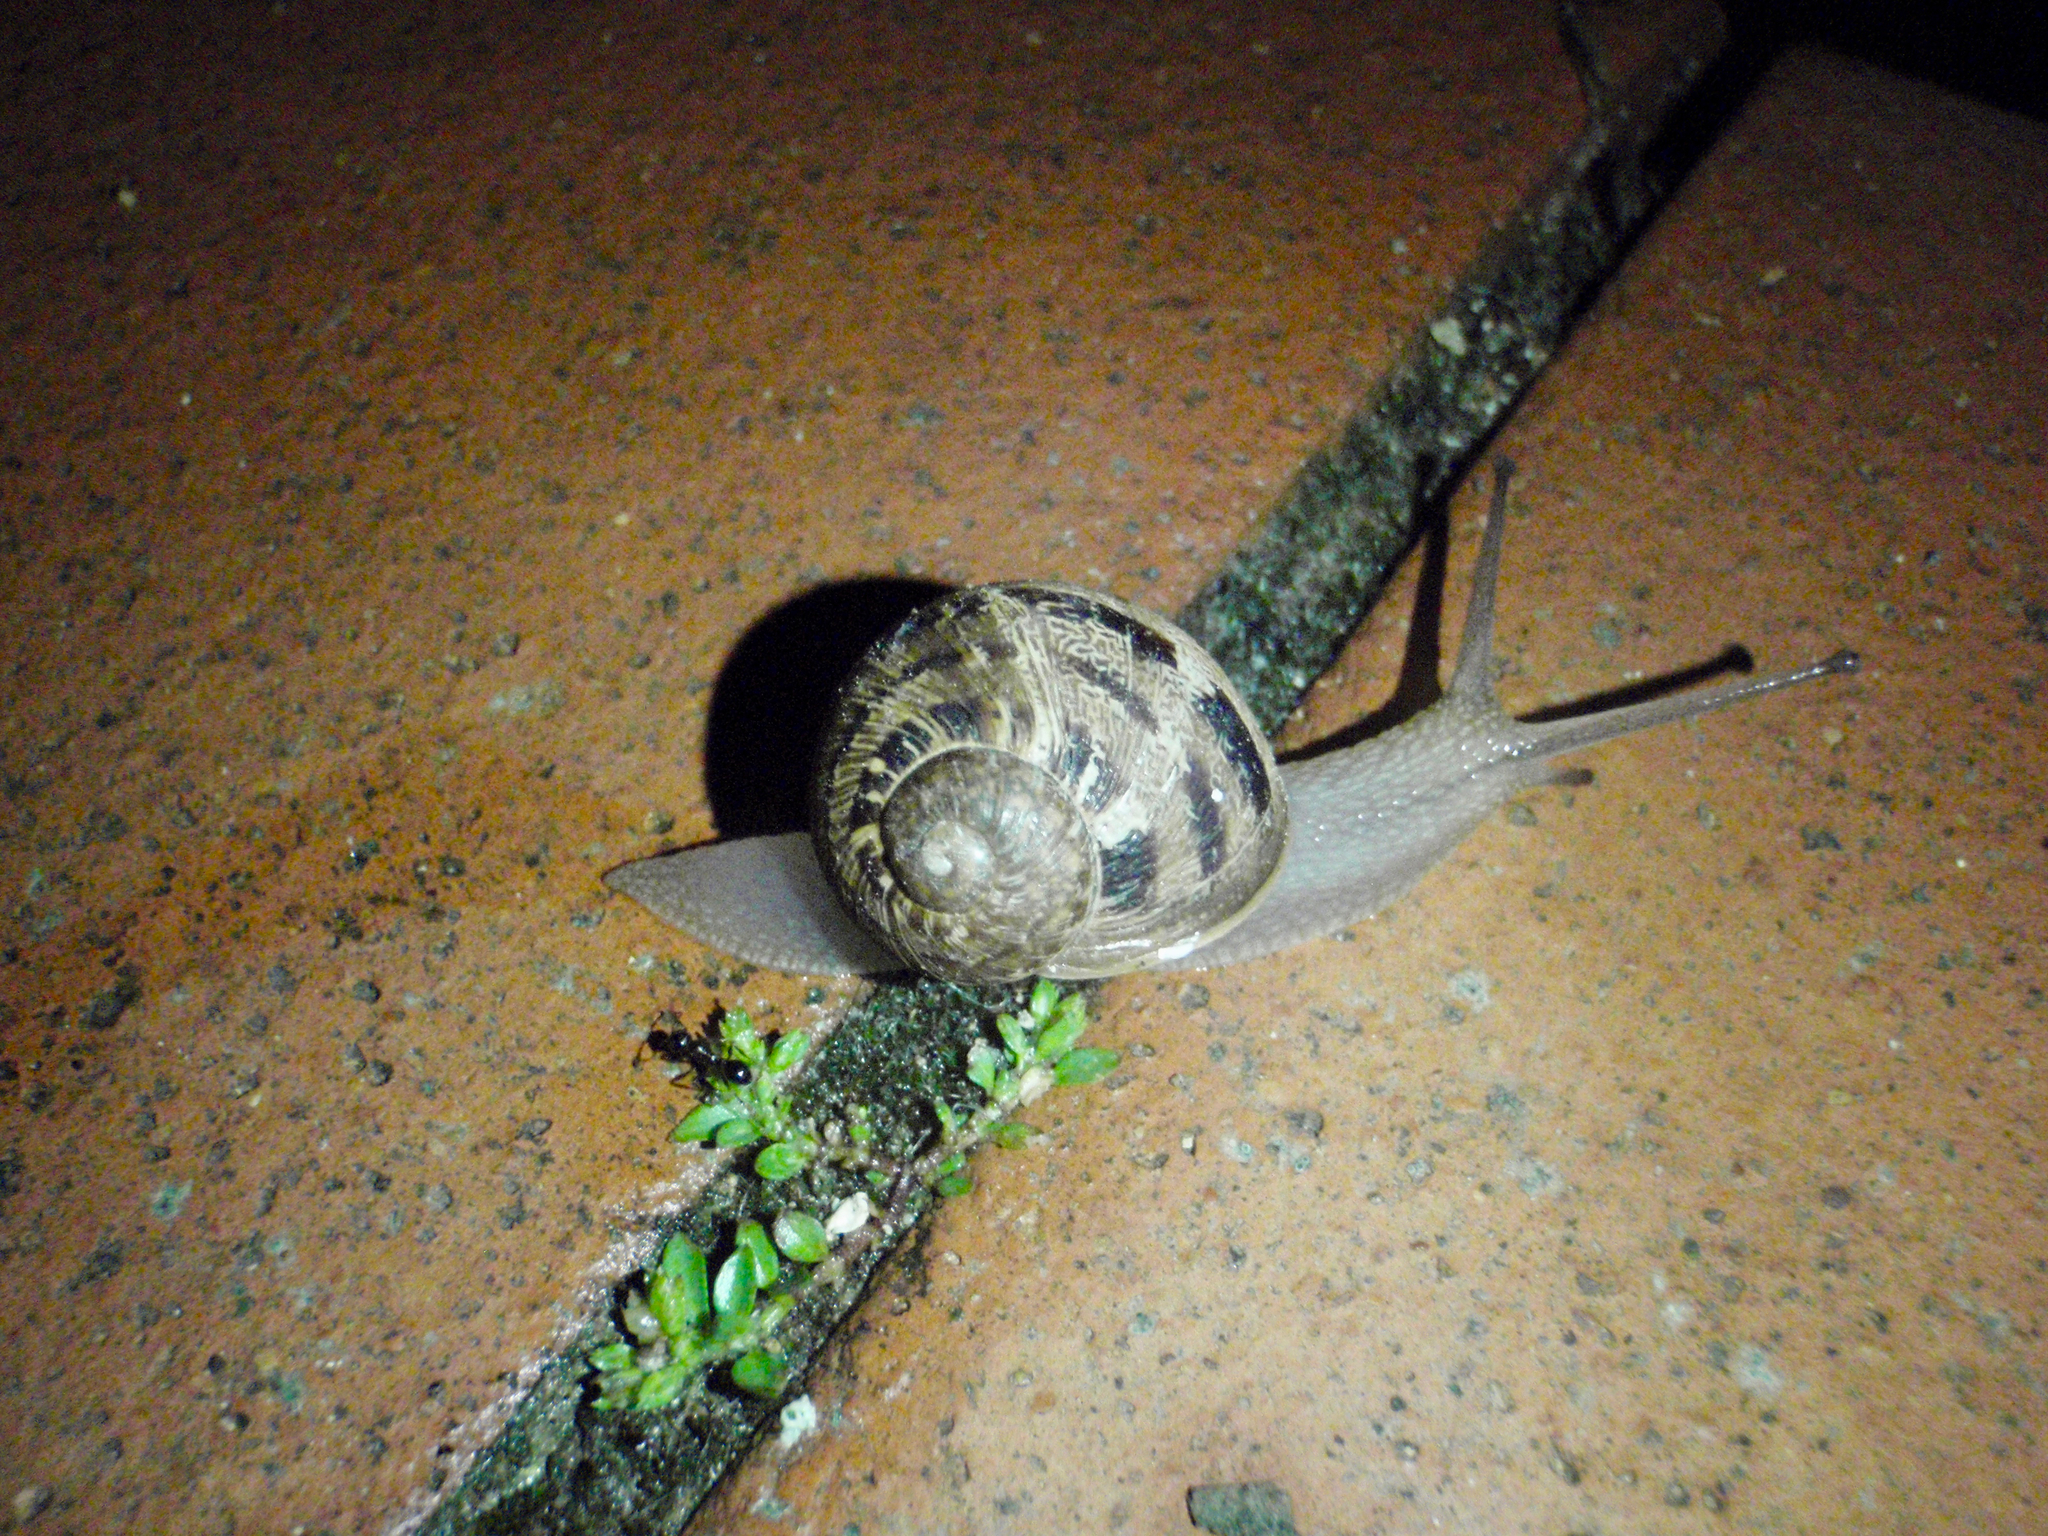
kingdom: Animalia
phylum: Mollusca
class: Gastropoda
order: Stylommatophora
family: Helicidae
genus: Cornu
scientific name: Cornu aspersum
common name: Brown garden snail
